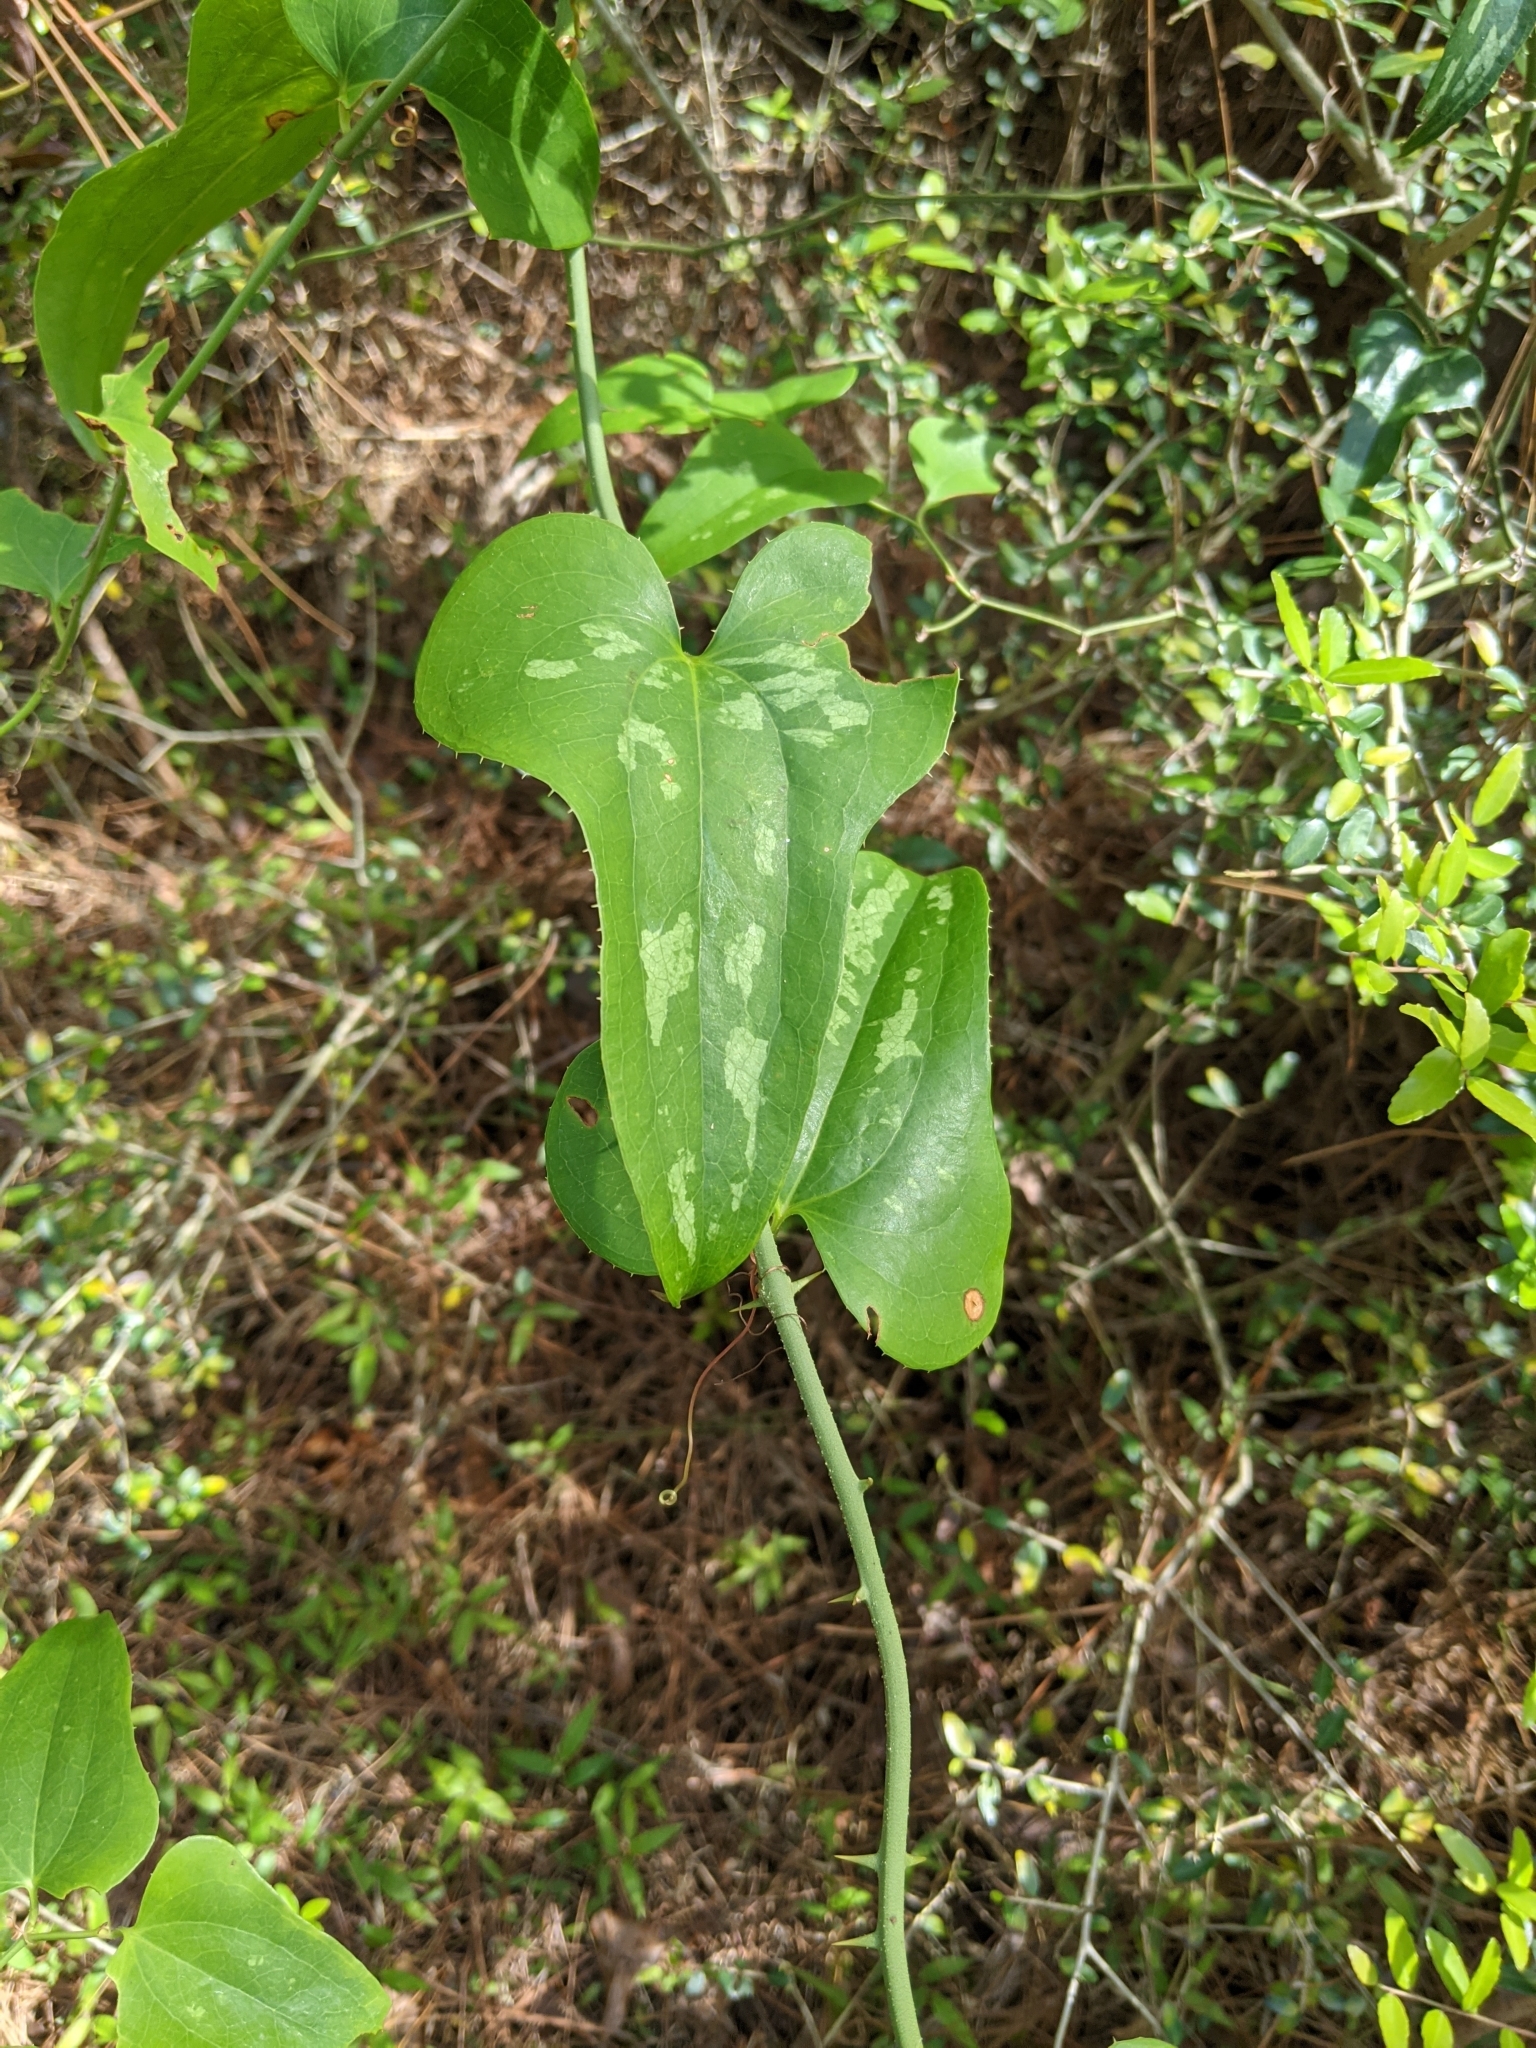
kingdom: Plantae
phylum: Tracheophyta
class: Liliopsida
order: Liliales
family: Smilacaceae
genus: Smilax
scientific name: Smilax bona-nox
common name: Catbrier
